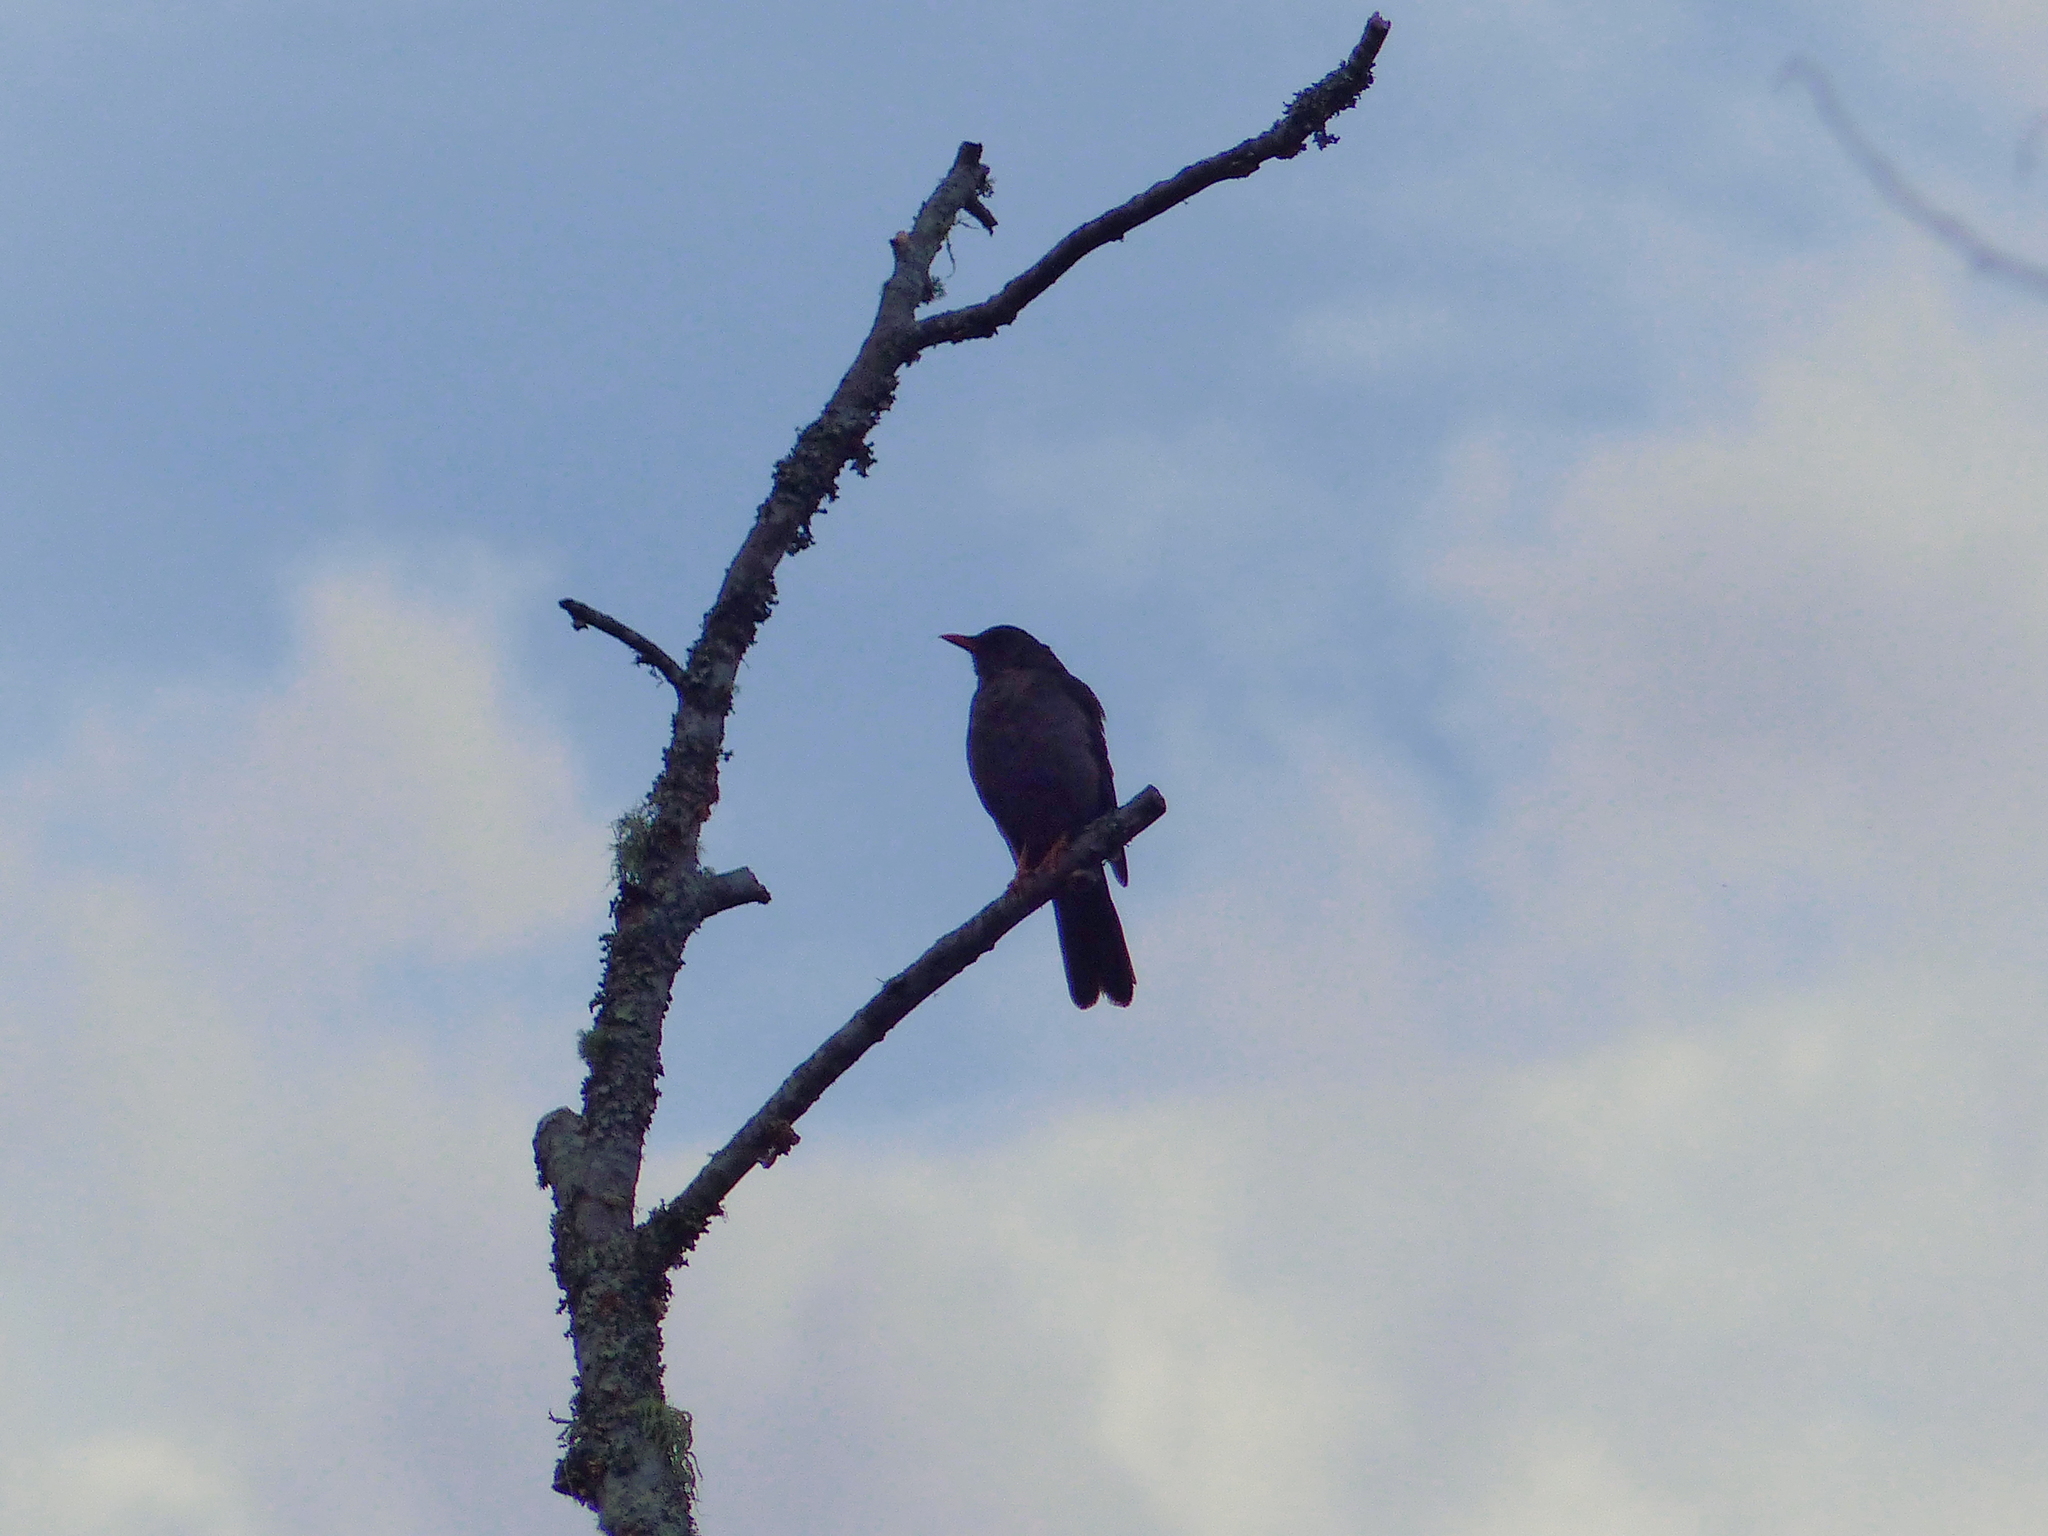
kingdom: Animalia
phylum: Chordata
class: Aves
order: Passeriformes
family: Turdidae
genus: Turdus
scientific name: Turdus fuscater
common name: Great thrush
